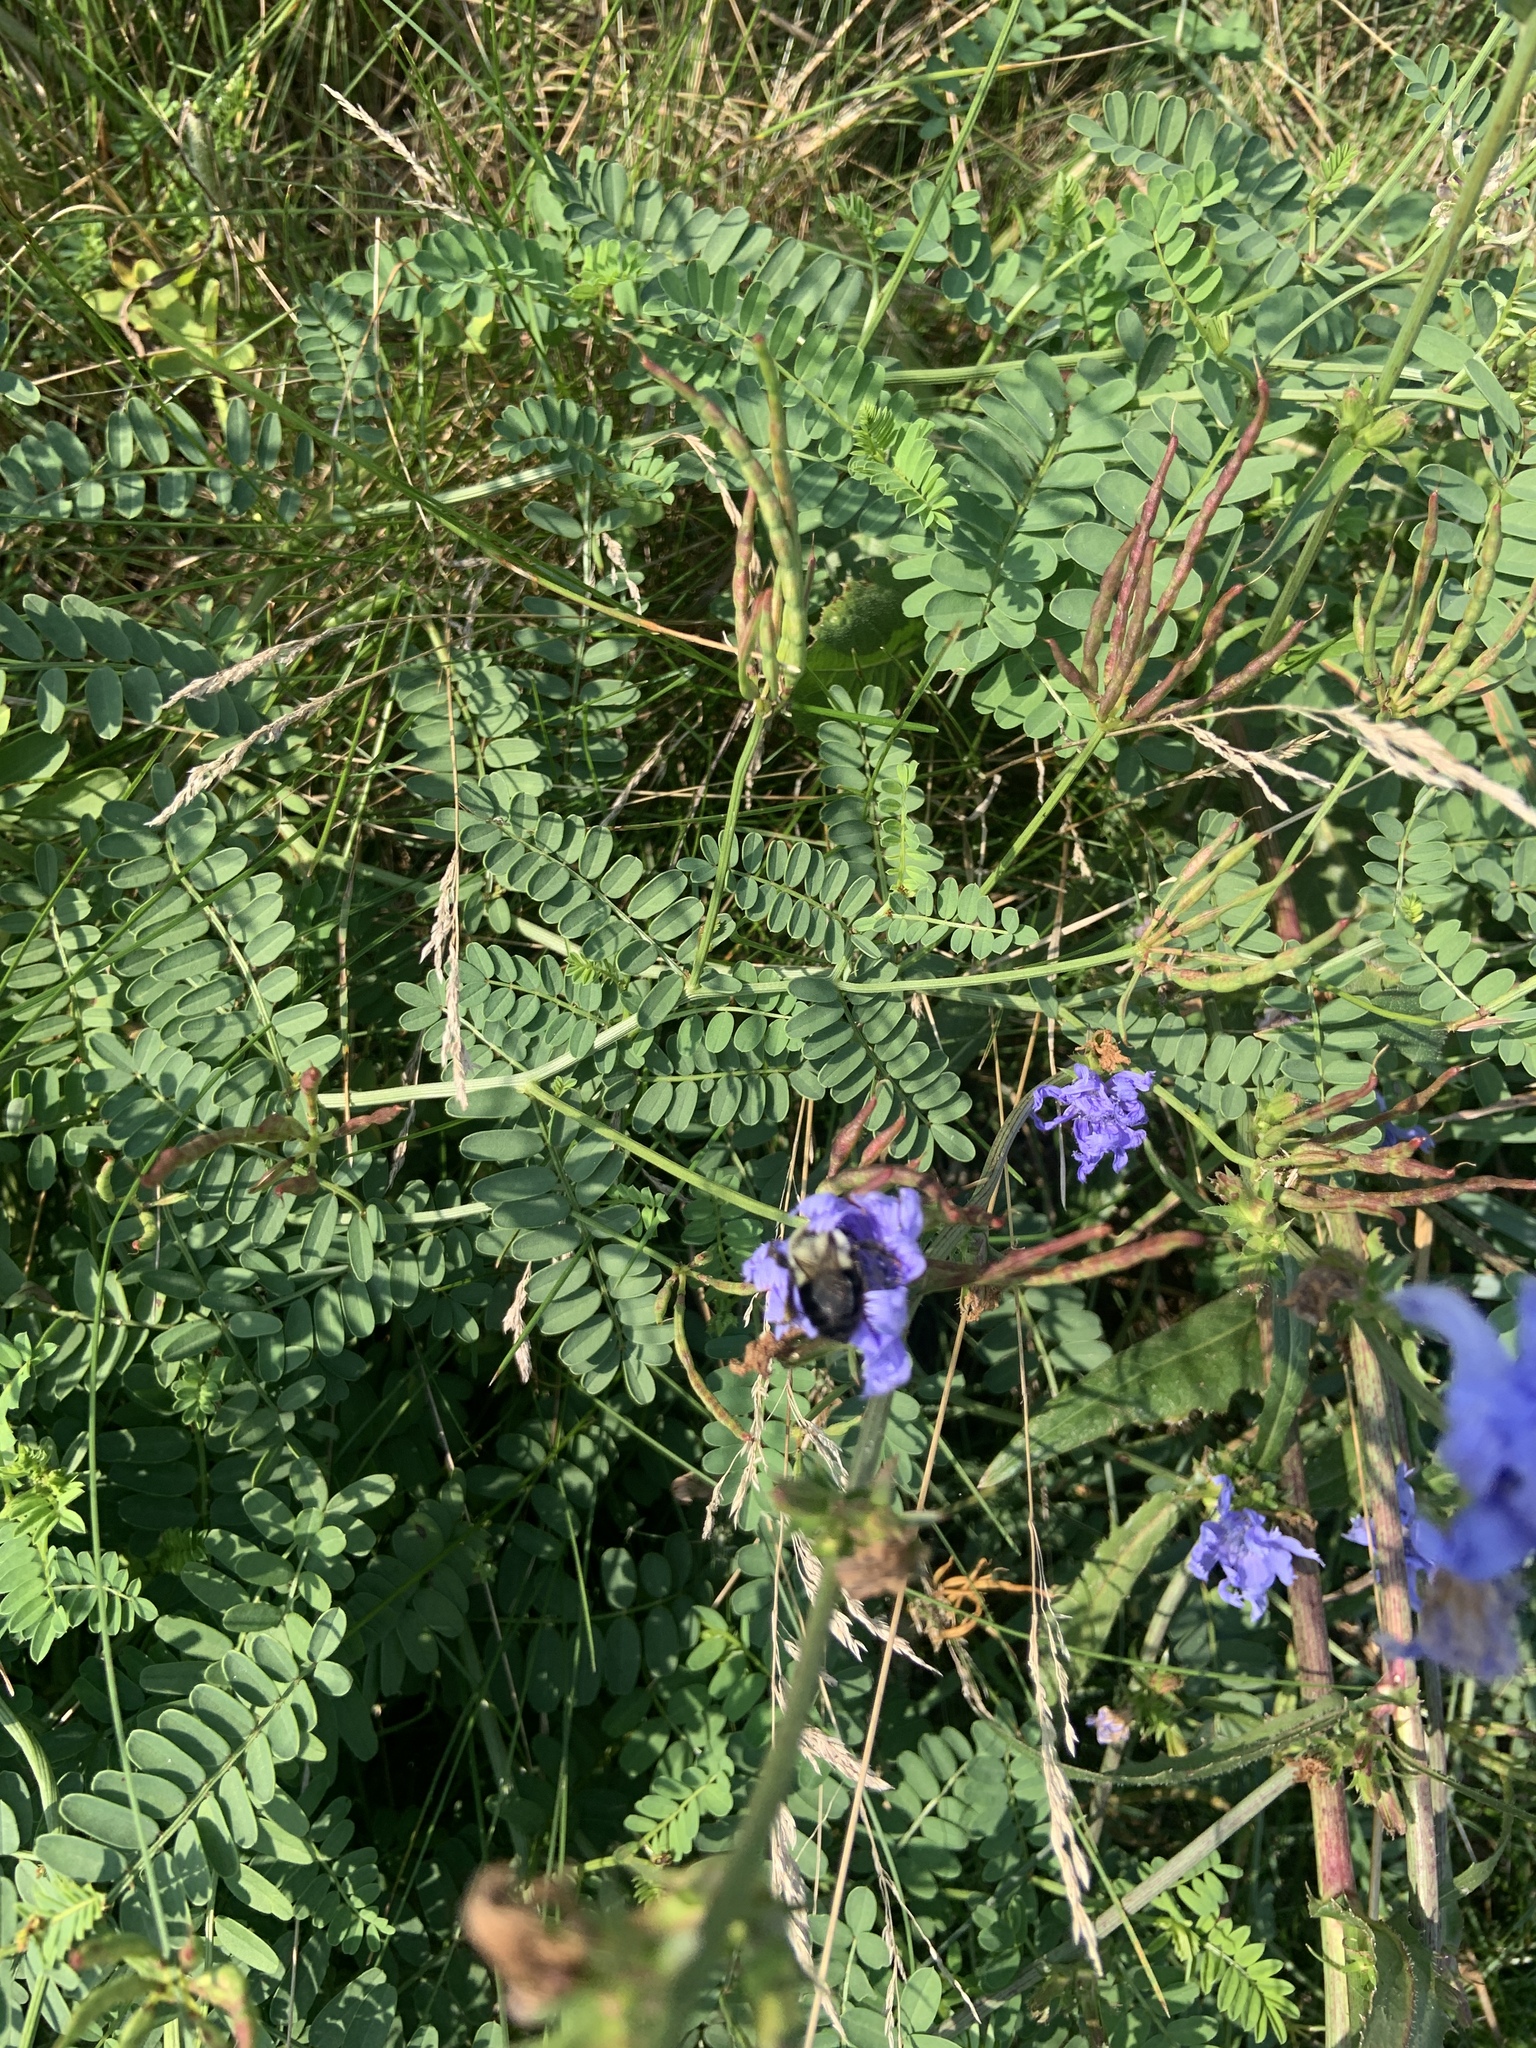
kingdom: Animalia
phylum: Arthropoda
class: Insecta
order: Hymenoptera
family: Apidae
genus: Bombus
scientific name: Bombus impatiens
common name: Common eastern bumble bee
